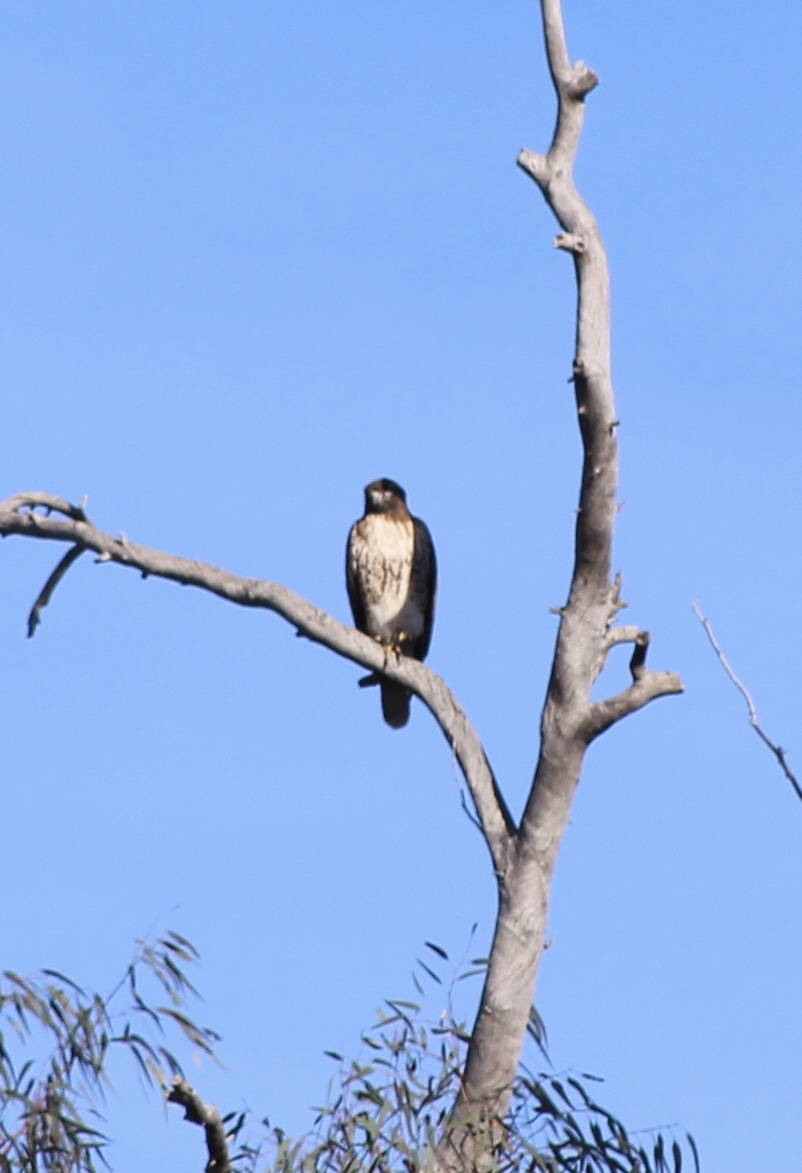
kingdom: Animalia
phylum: Chordata
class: Aves
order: Accipitriformes
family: Accipitridae
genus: Buteo
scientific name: Buteo jamaicensis
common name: Red-tailed hawk
